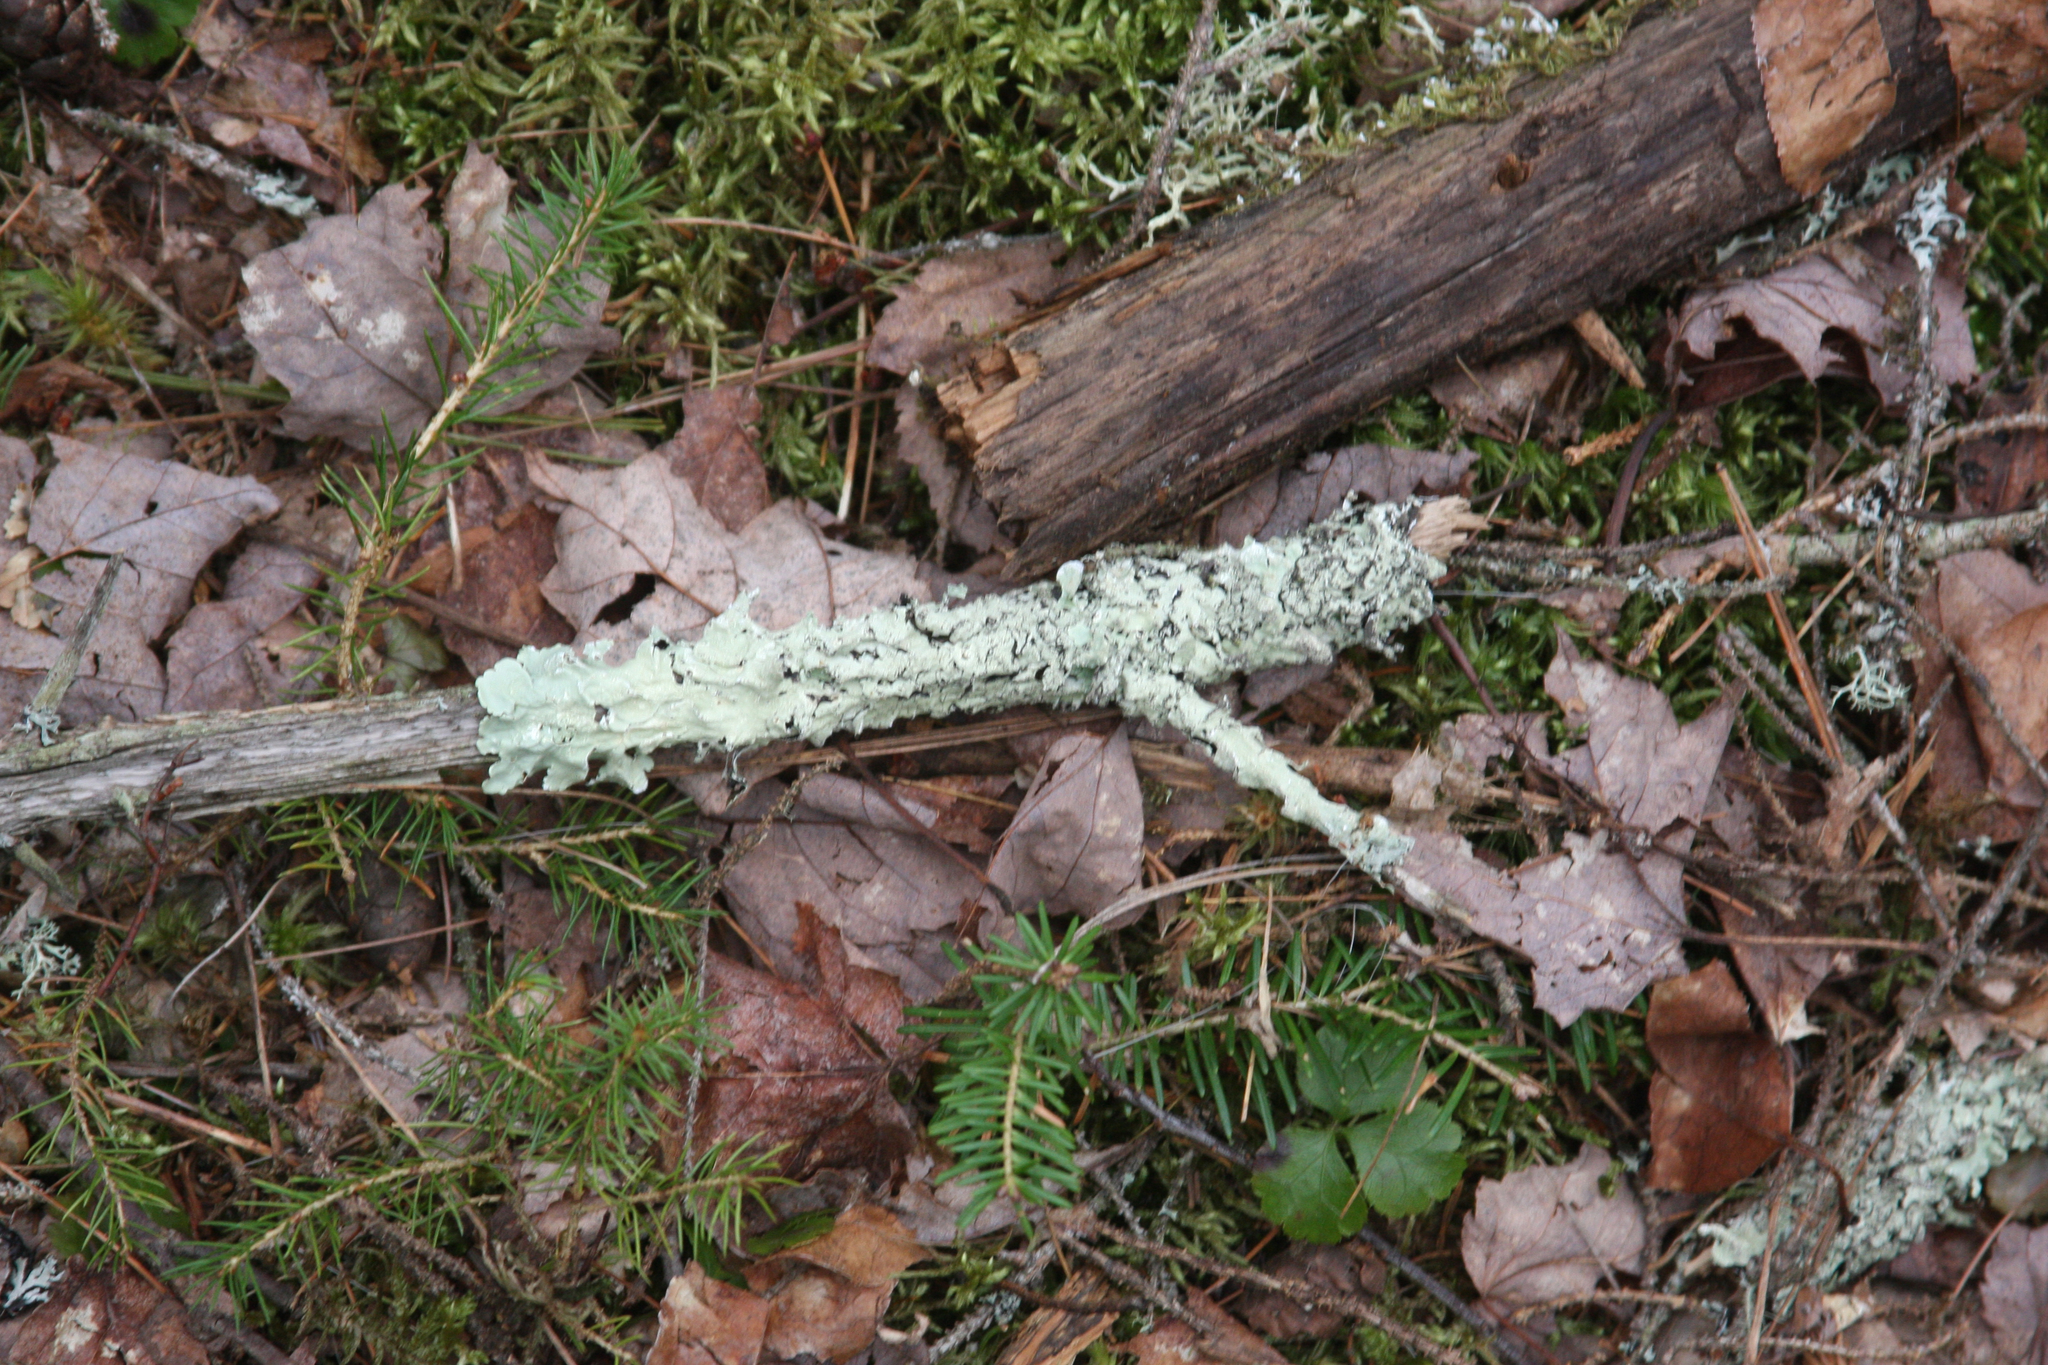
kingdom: Fungi
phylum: Ascomycota
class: Lecanoromycetes
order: Lecanorales
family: Parmeliaceae
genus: Flavoparmelia
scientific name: Flavoparmelia caperata
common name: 40-mile per hour lichen
